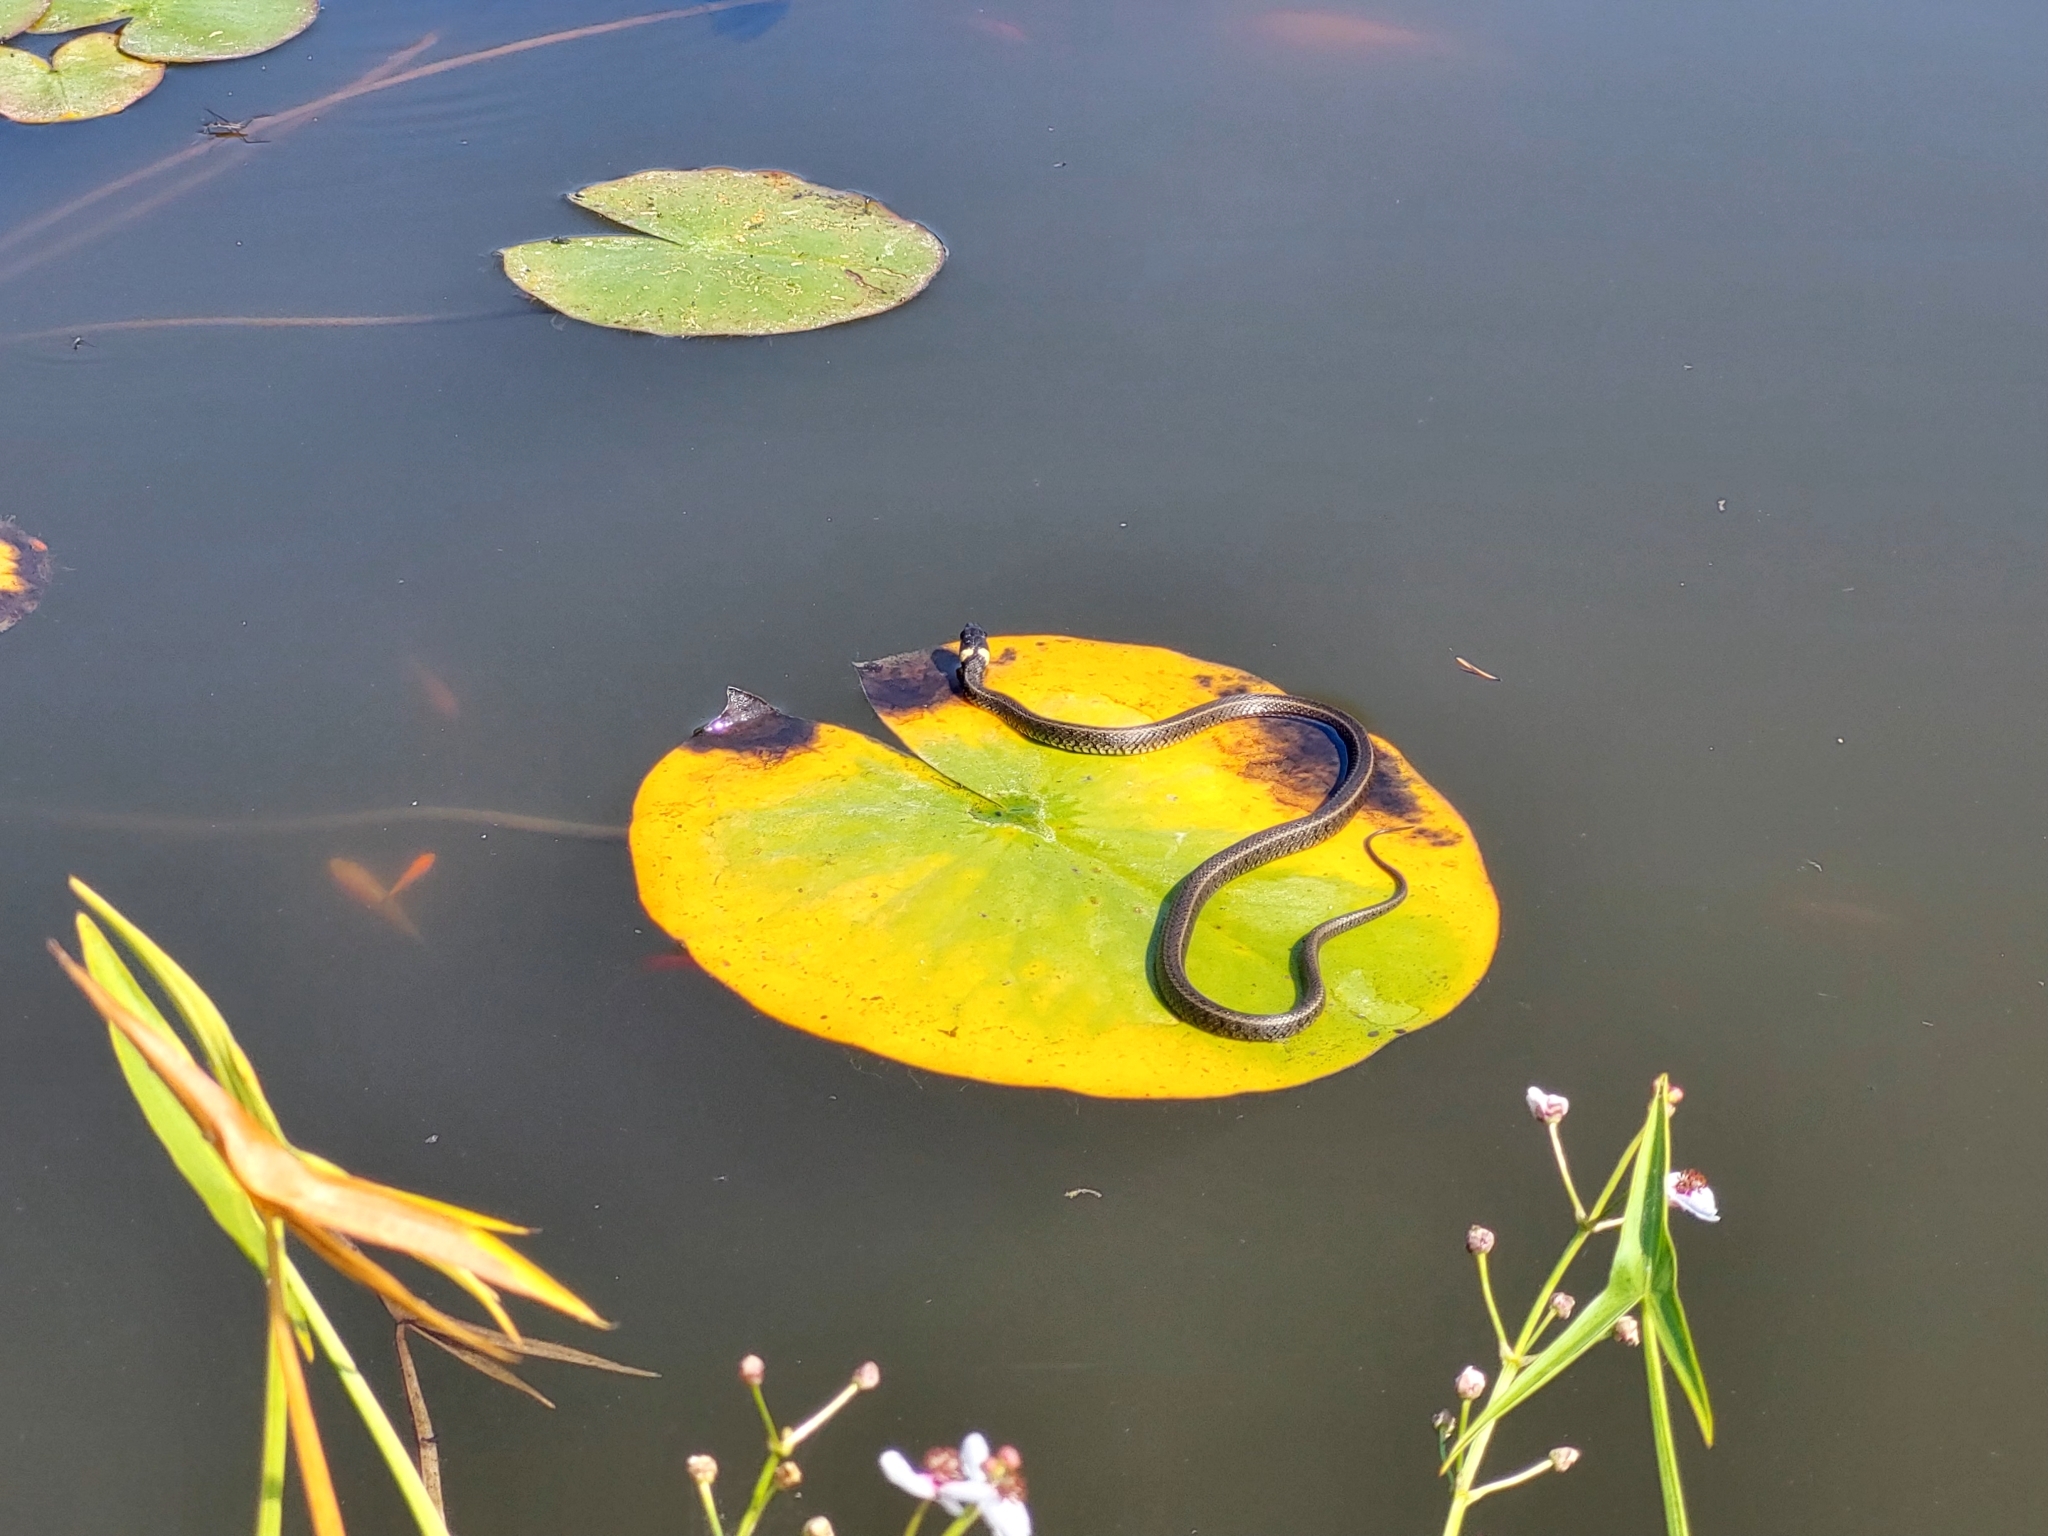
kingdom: Animalia
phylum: Chordata
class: Squamata
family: Colubridae
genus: Natrix
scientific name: Natrix natrix
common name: Grass snake
